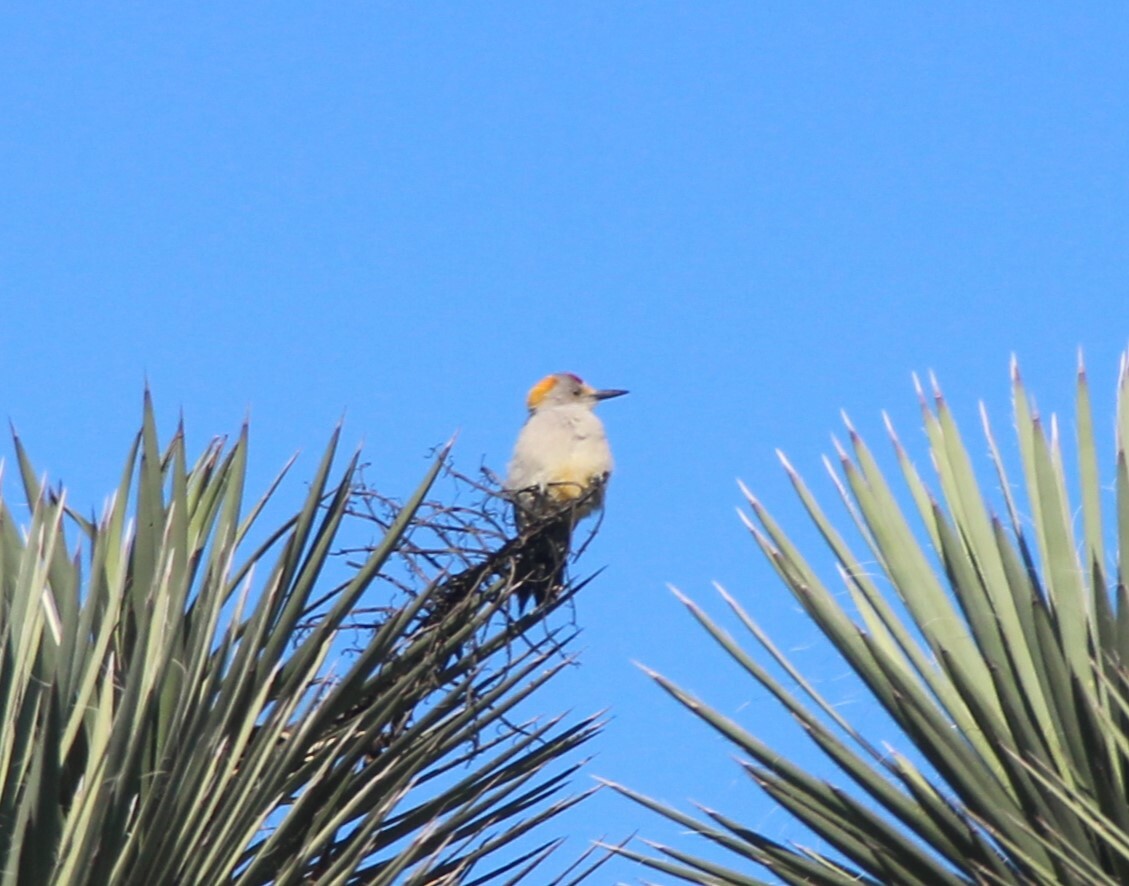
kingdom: Animalia
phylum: Chordata
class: Aves
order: Piciformes
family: Picidae
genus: Melanerpes
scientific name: Melanerpes aurifrons
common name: Golden-fronted woodpecker
